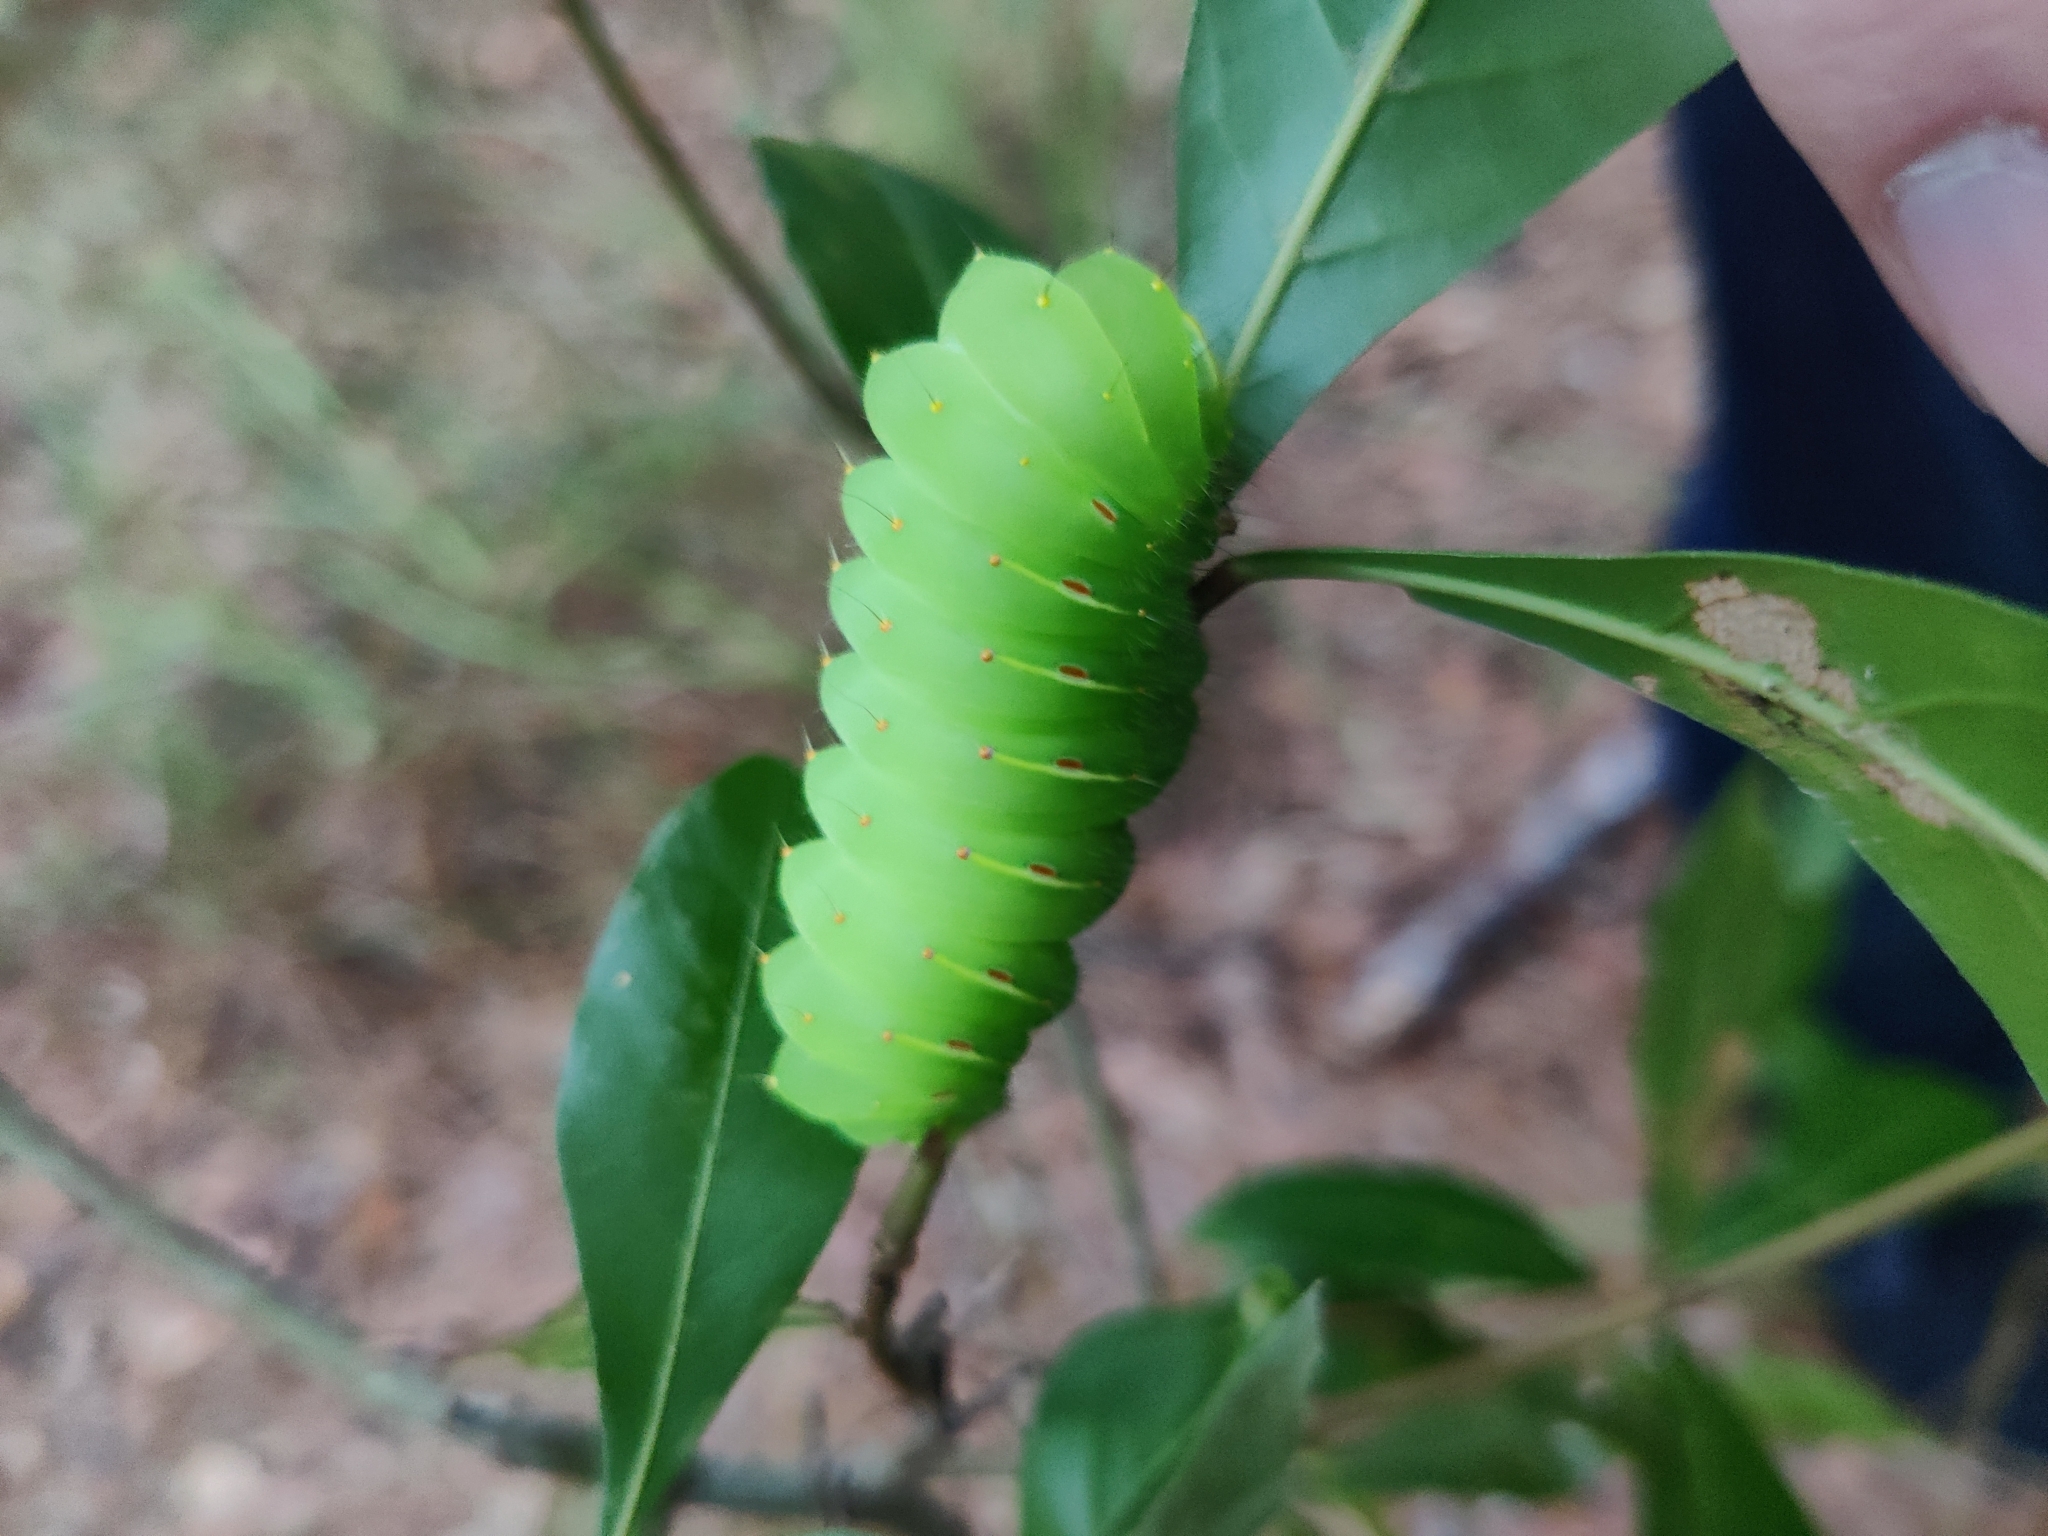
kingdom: Animalia
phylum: Arthropoda
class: Insecta
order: Lepidoptera
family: Saturniidae
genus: Antheraea
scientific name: Antheraea polyphemus
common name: Polyphemus moth
